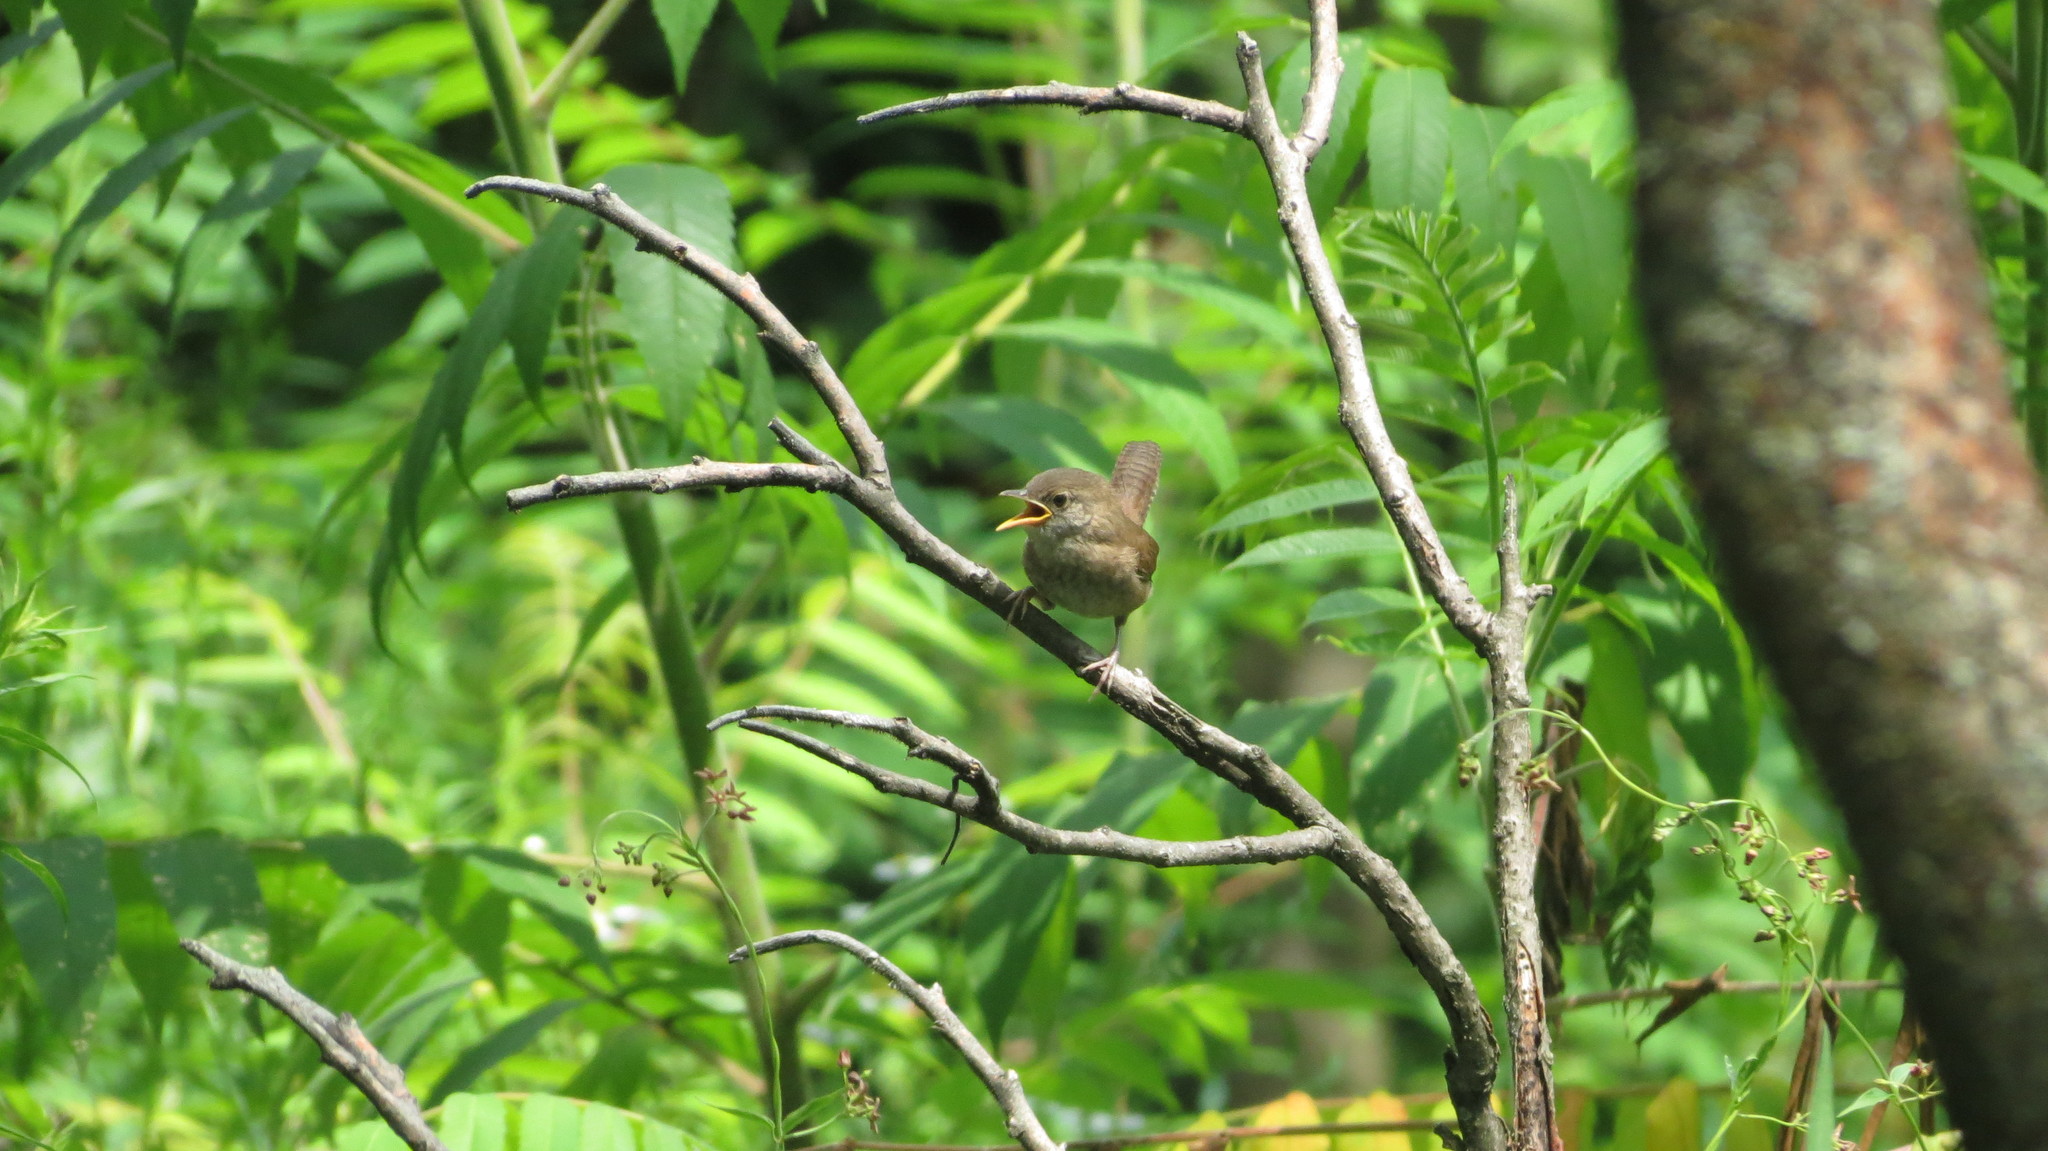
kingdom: Animalia
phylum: Chordata
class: Aves
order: Passeriformes
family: Troglodytidae
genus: Troglodytes
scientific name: Troglodytes aedon
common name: House wren
